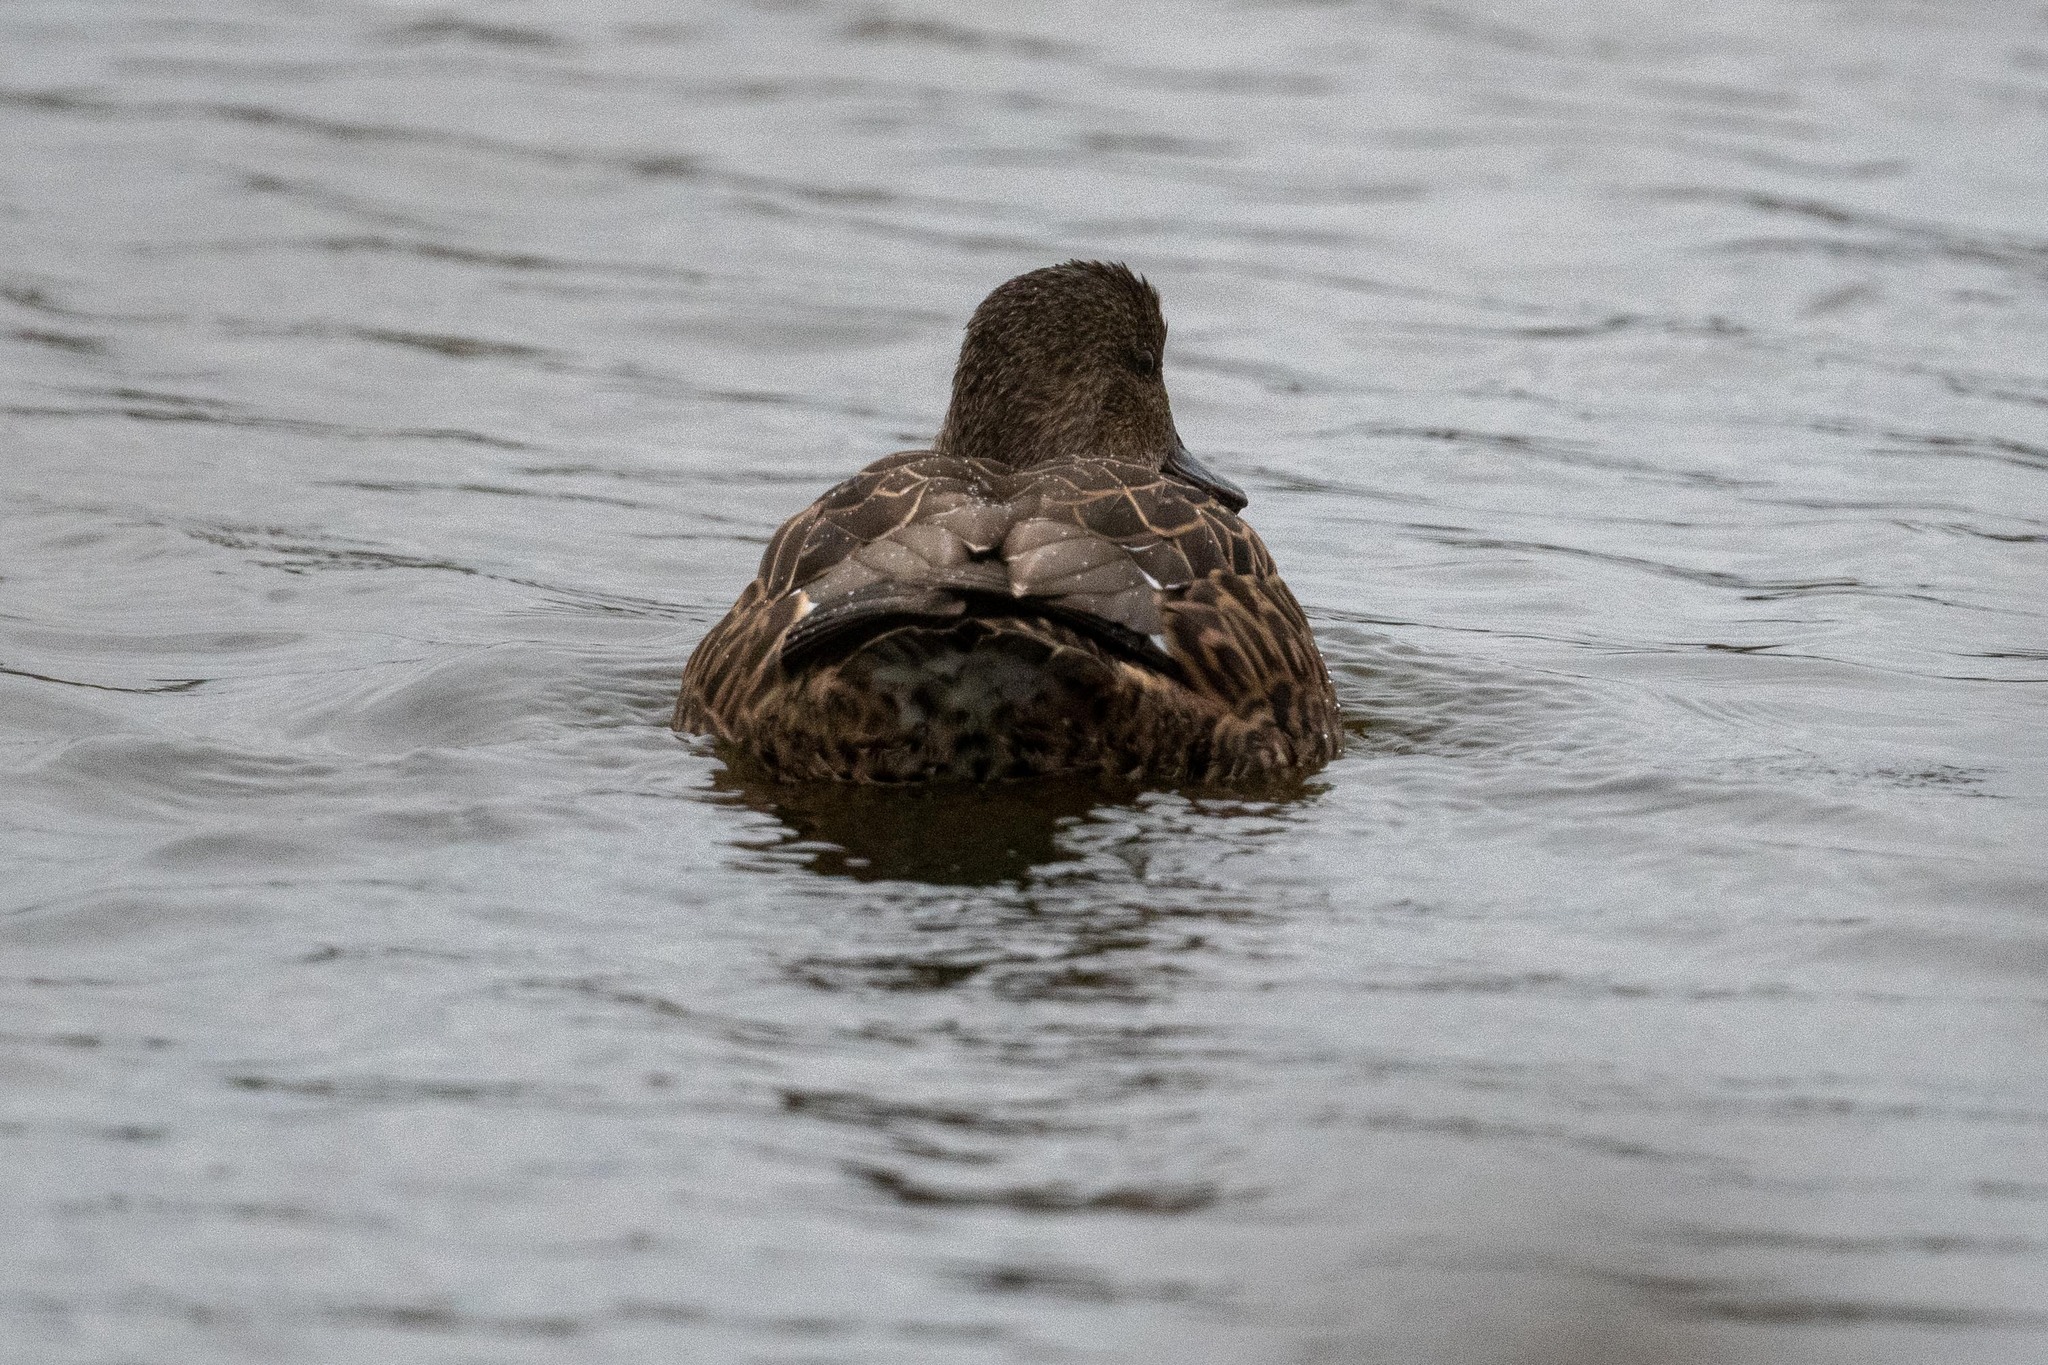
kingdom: Animalia
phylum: Chordata
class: Aves
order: Anseriformes
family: Anatidae
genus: Mareca
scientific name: Mareca strepera
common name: Gadwall
